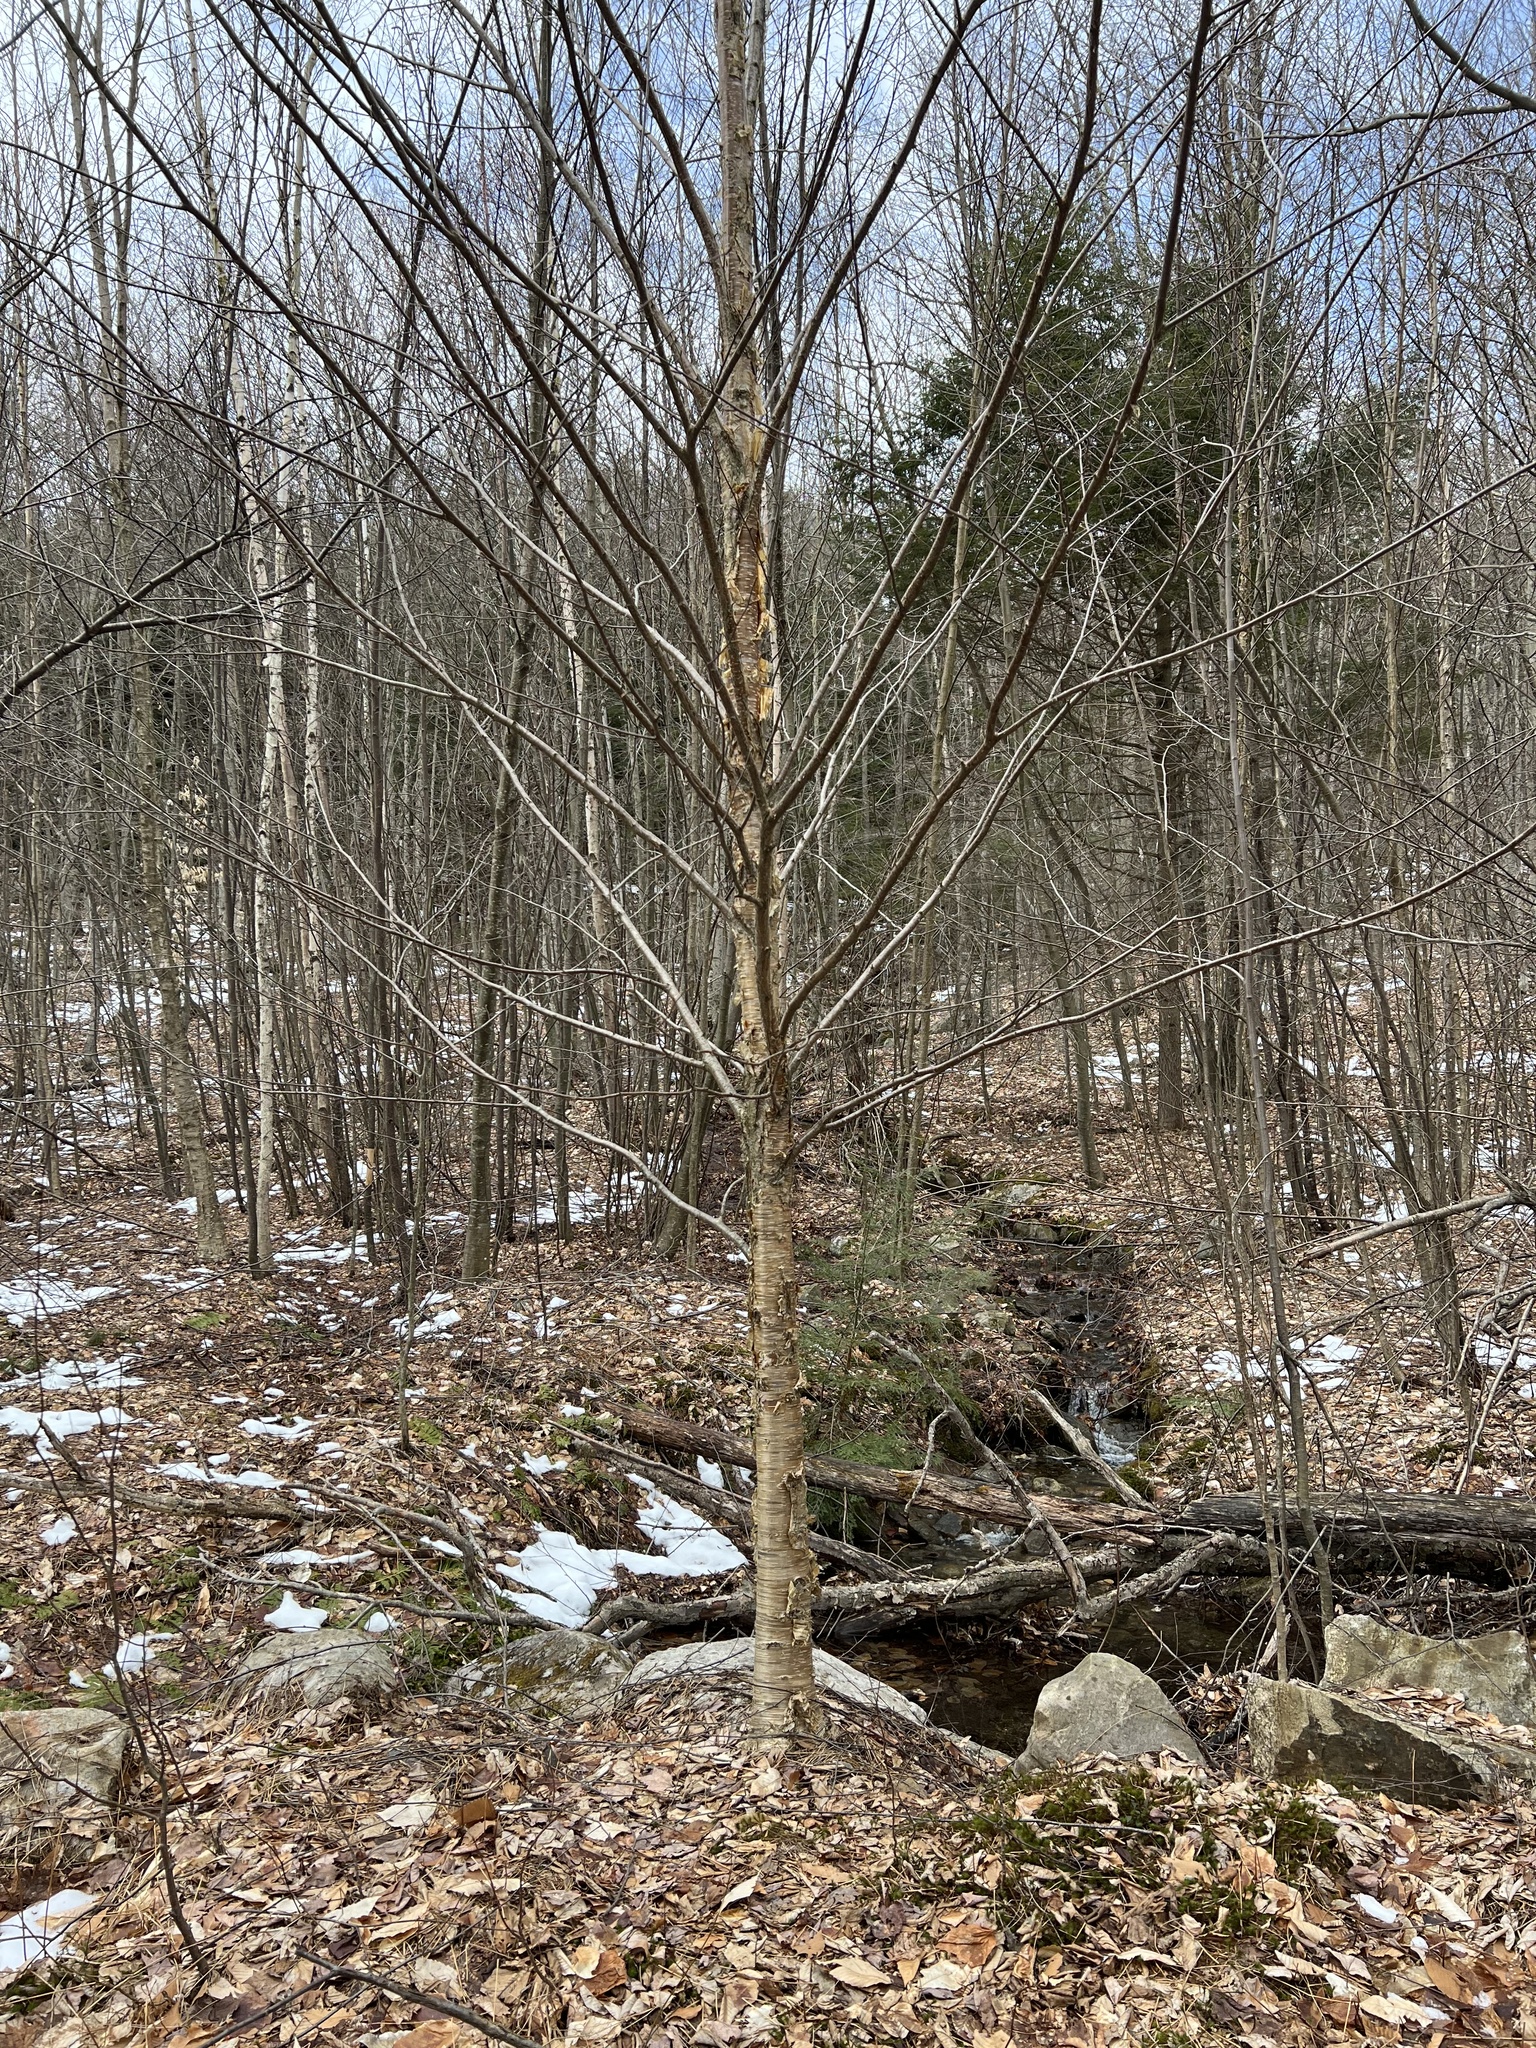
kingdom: Plantae
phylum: Tracheophyta
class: Magnoliopsida
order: Fagales
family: Betulaceae
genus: Betula
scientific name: Betula alleghaniensis
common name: Yellow birch
